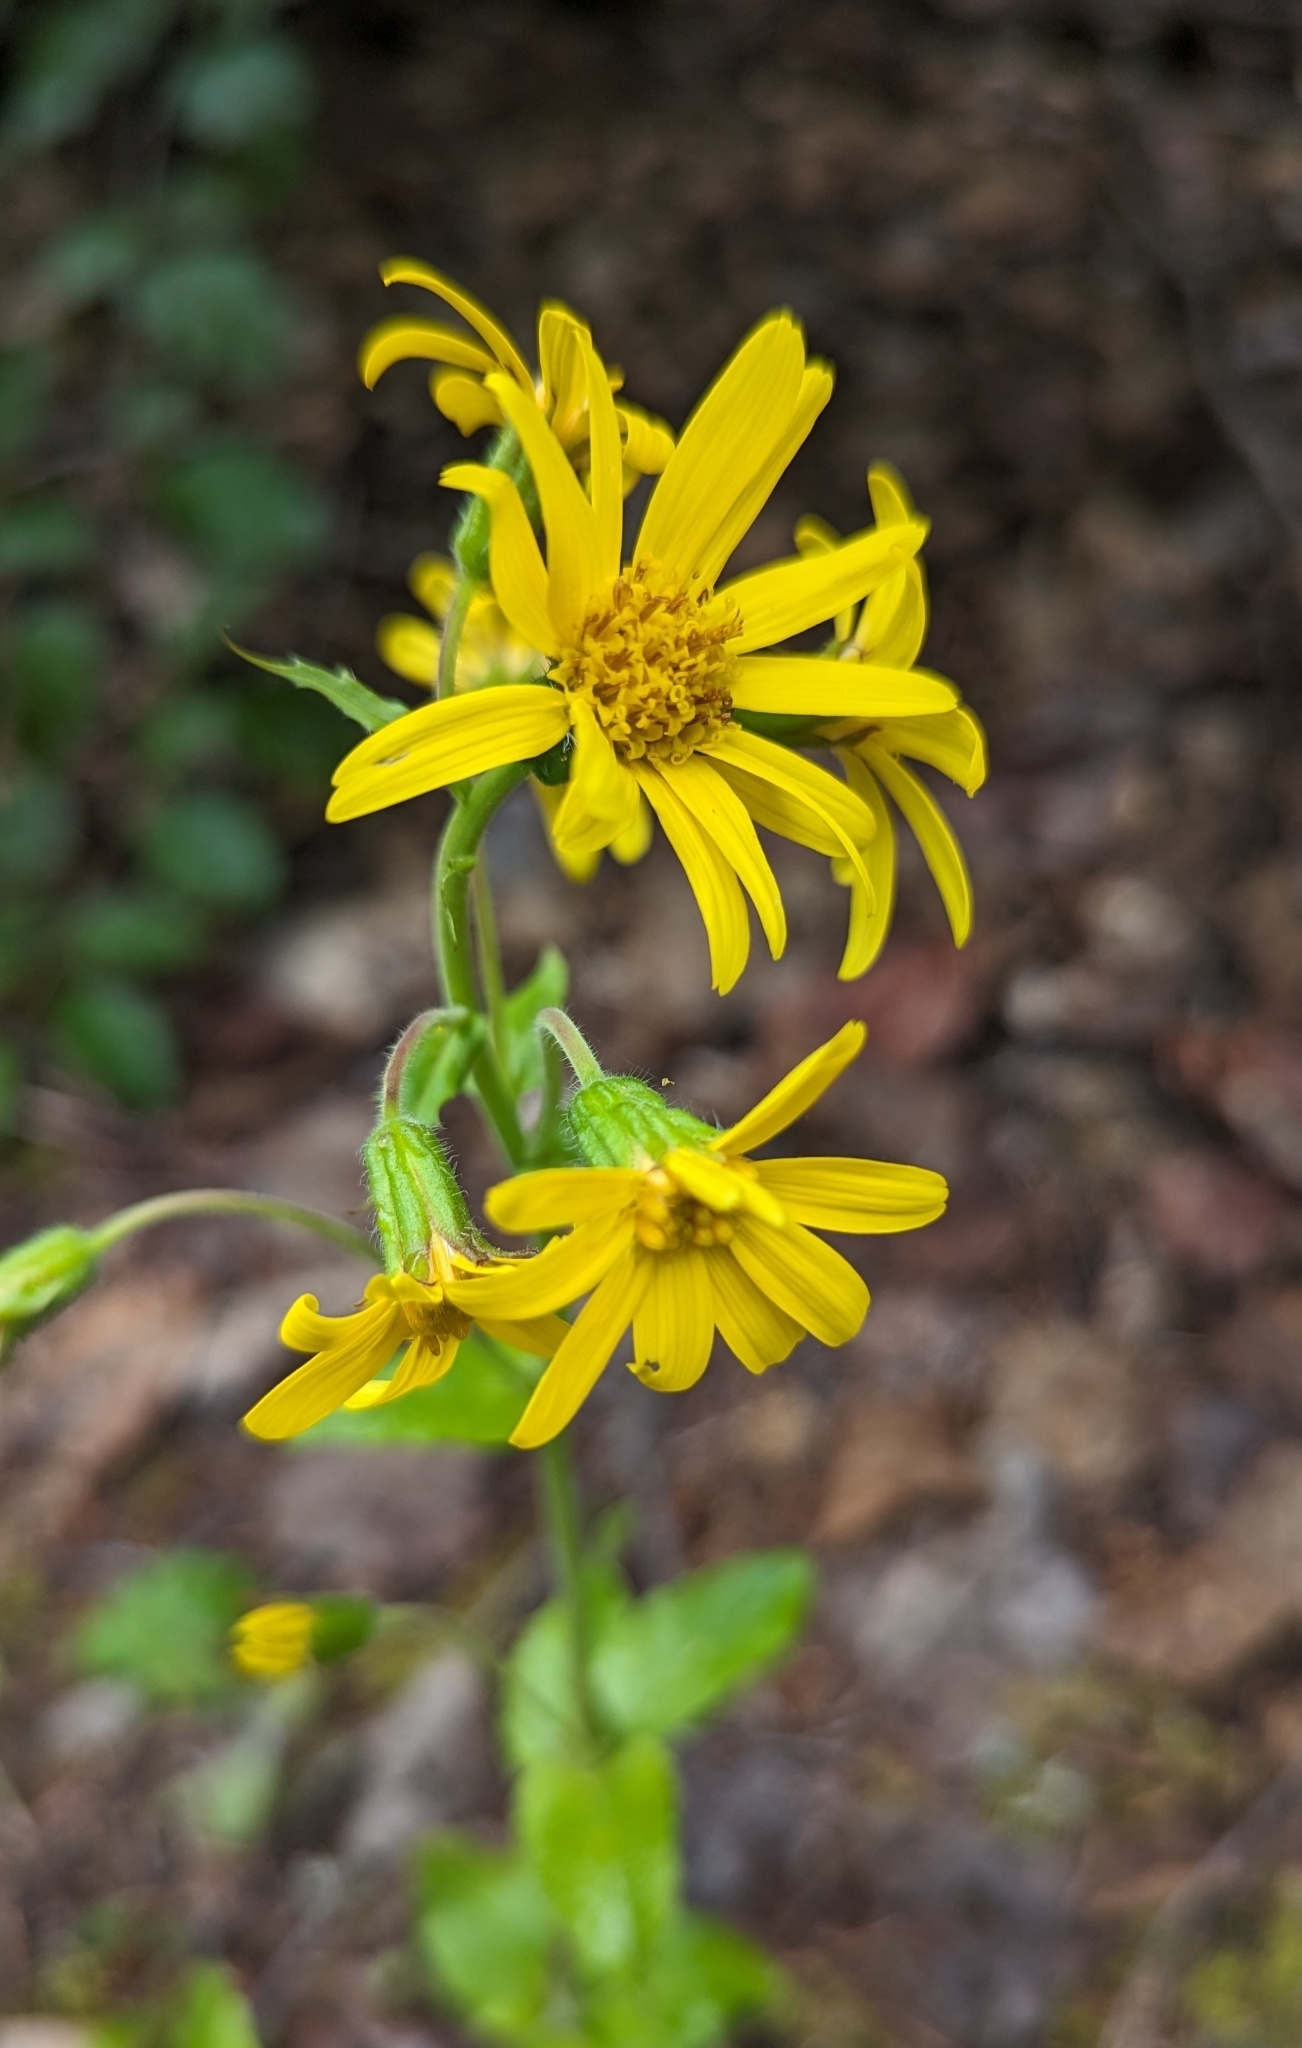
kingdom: Plantae
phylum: Tracheophyta
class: Magnoliopsida
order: Asterales
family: Asteraceae
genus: Arnica
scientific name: Arnica latifolia
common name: Arnica
